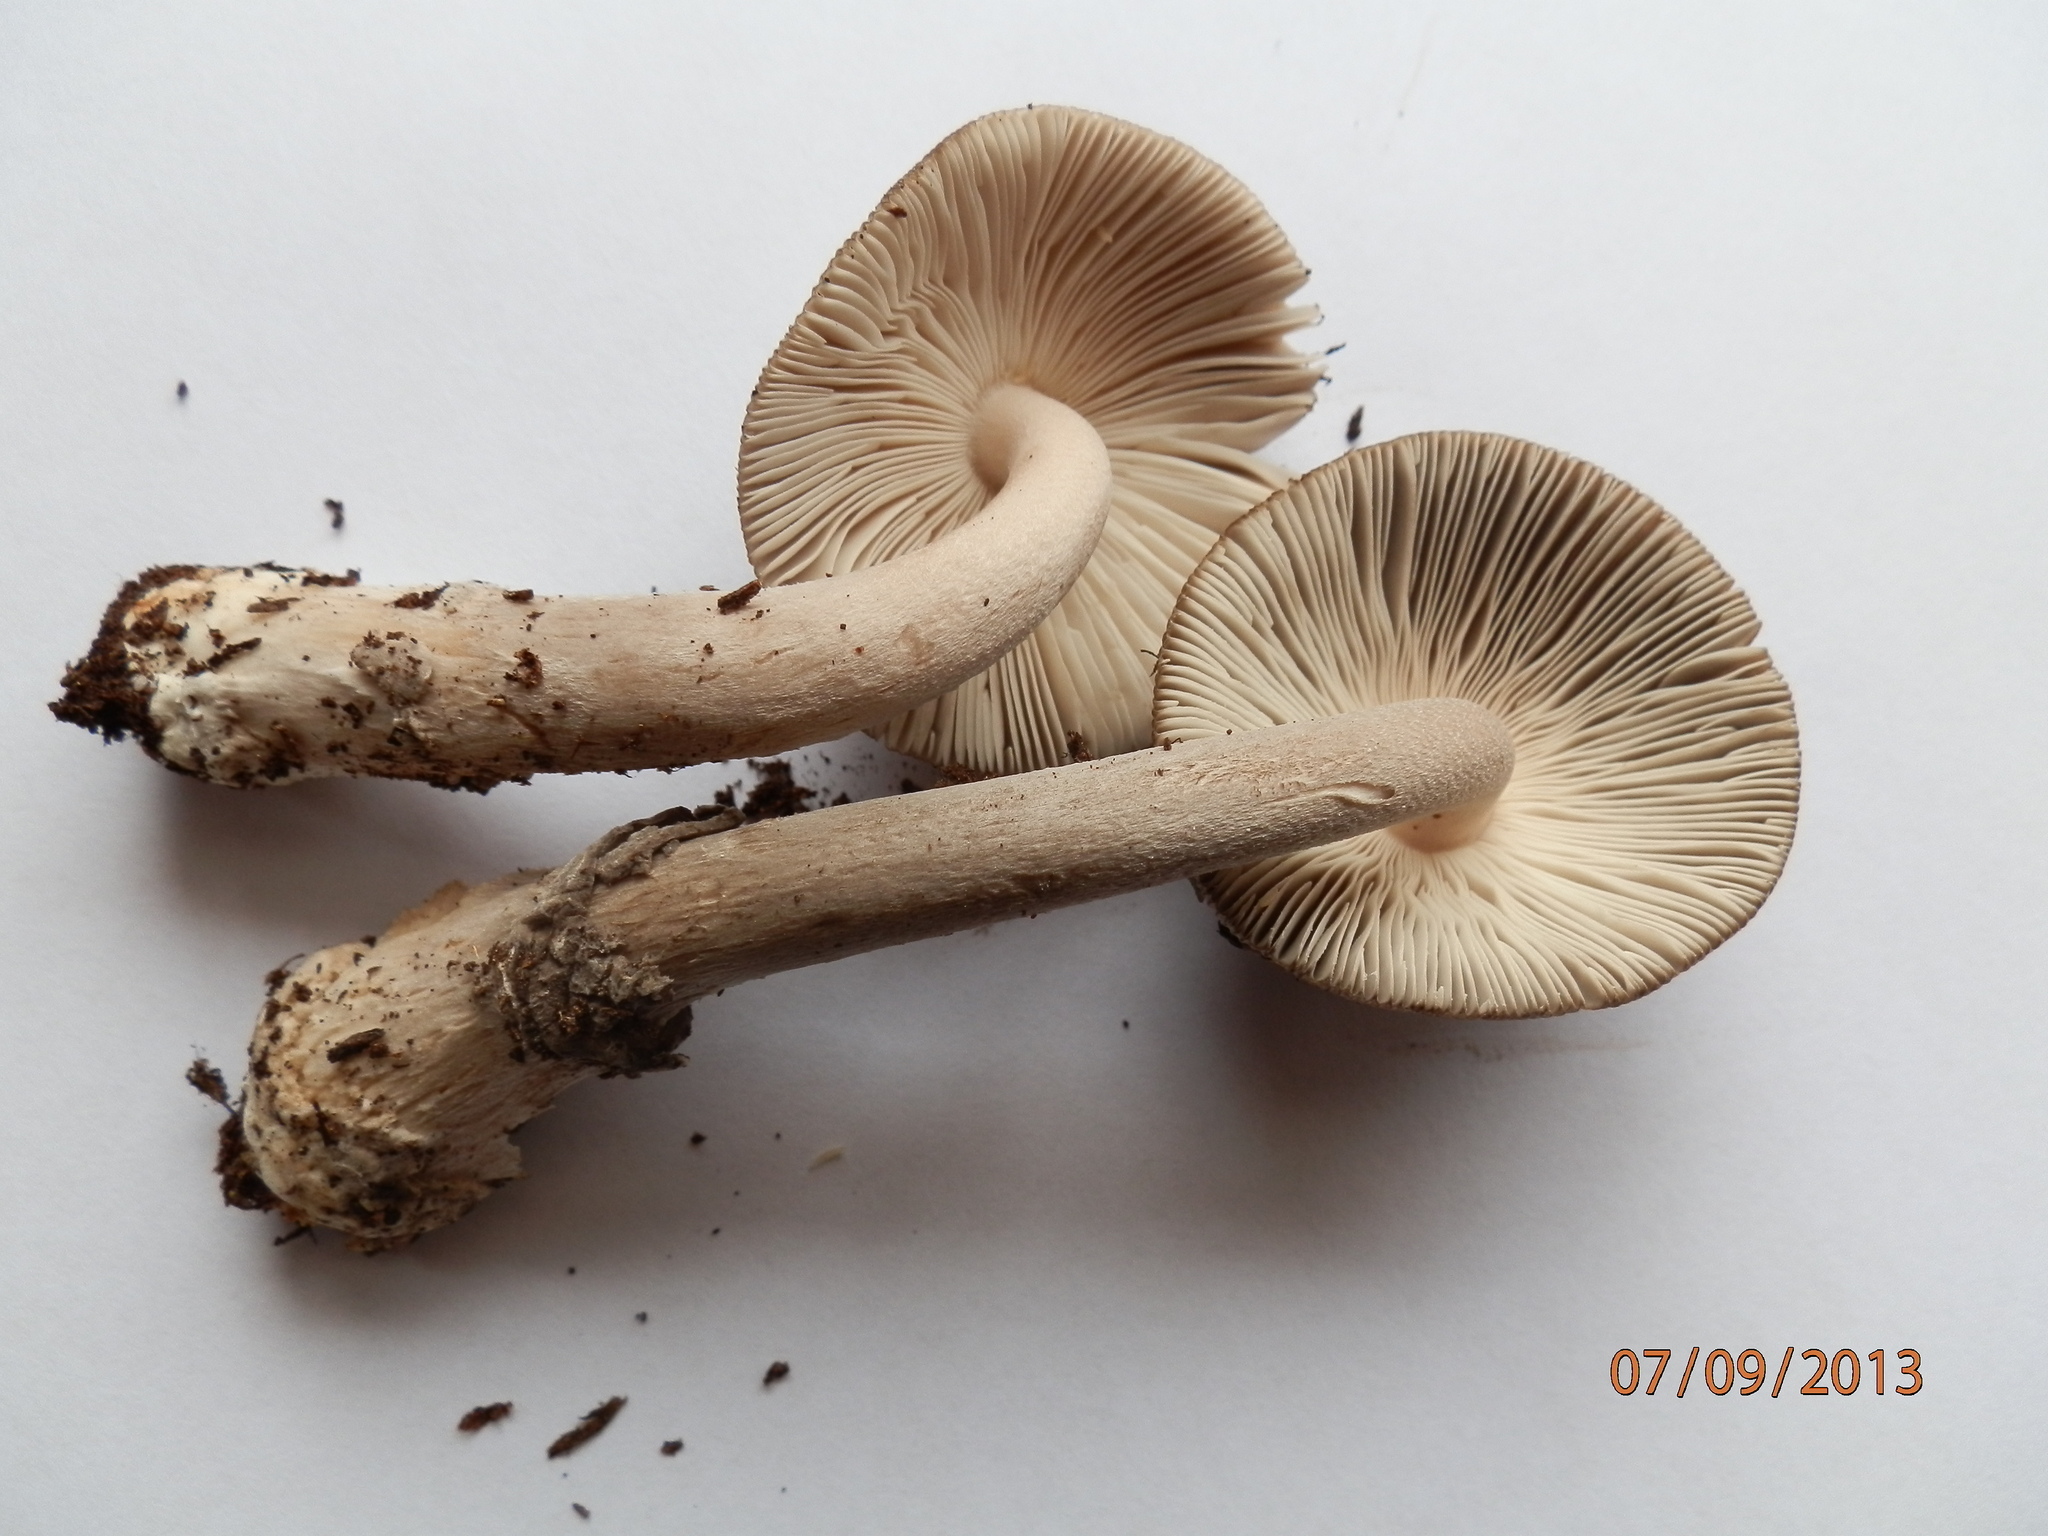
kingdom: Fungi
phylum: Basidiomycota
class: Agaricomycetes
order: Agaricales
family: Amanitaceae
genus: Amanita
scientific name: Amanita rhacopus
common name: Shaggy legged ringless amanita
